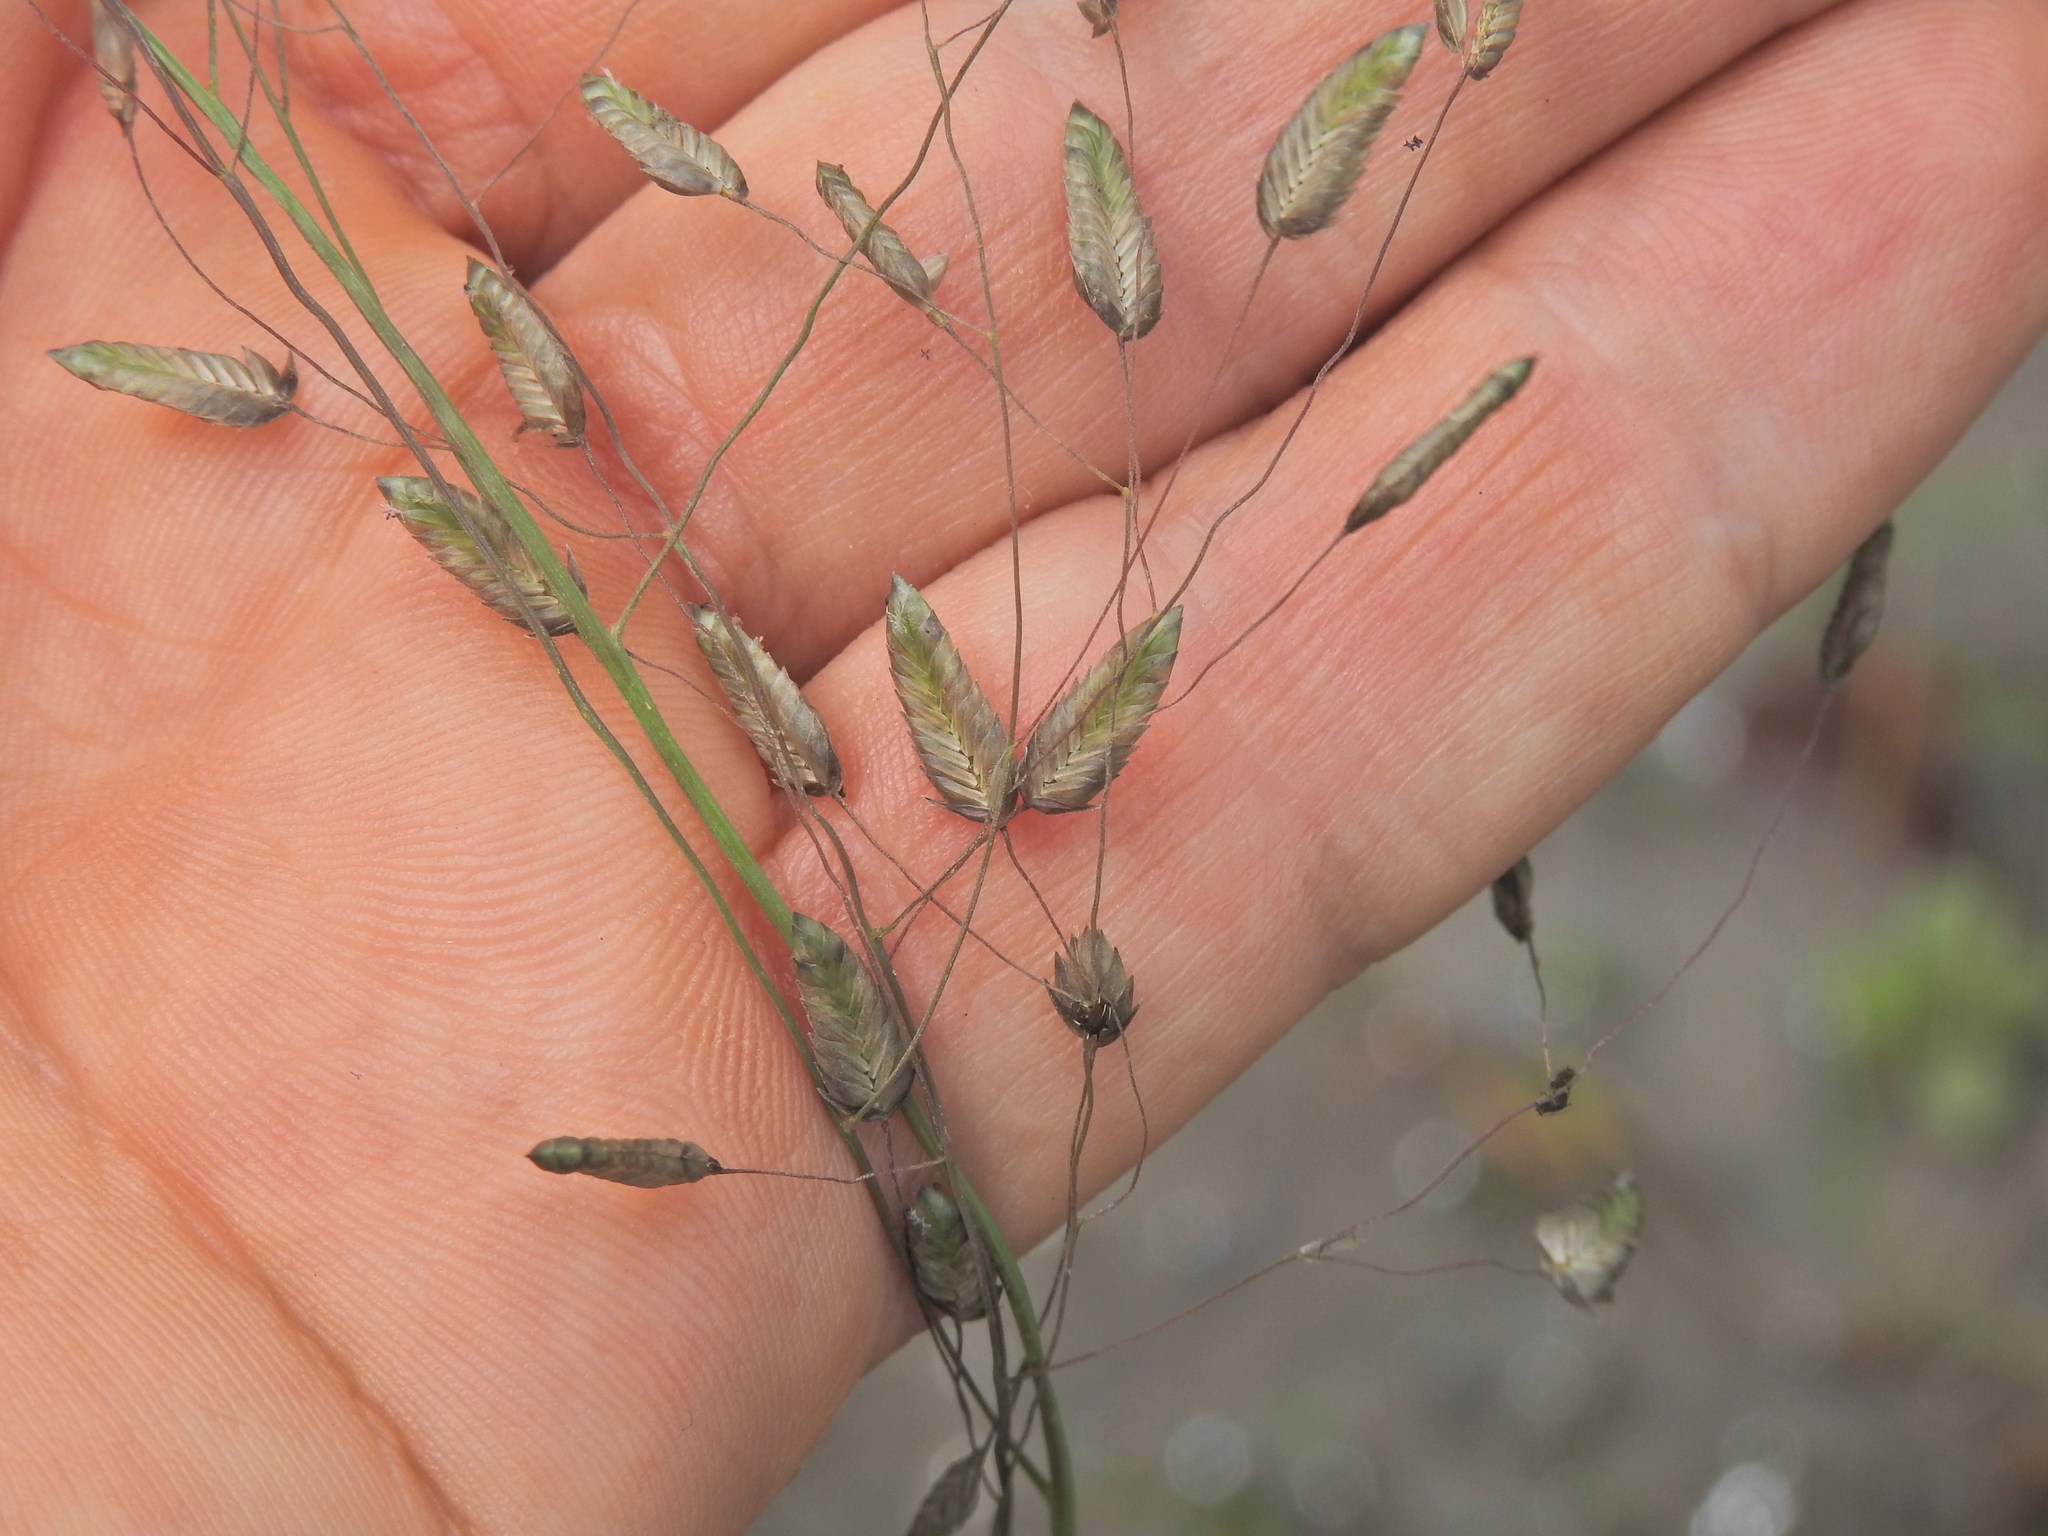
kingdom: Plantae
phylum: Tracheophyta
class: Liliopsida
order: Poales
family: Poaceae
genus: Eragrostis
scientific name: Eragrostis unioloides
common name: Chinese lovegrass
